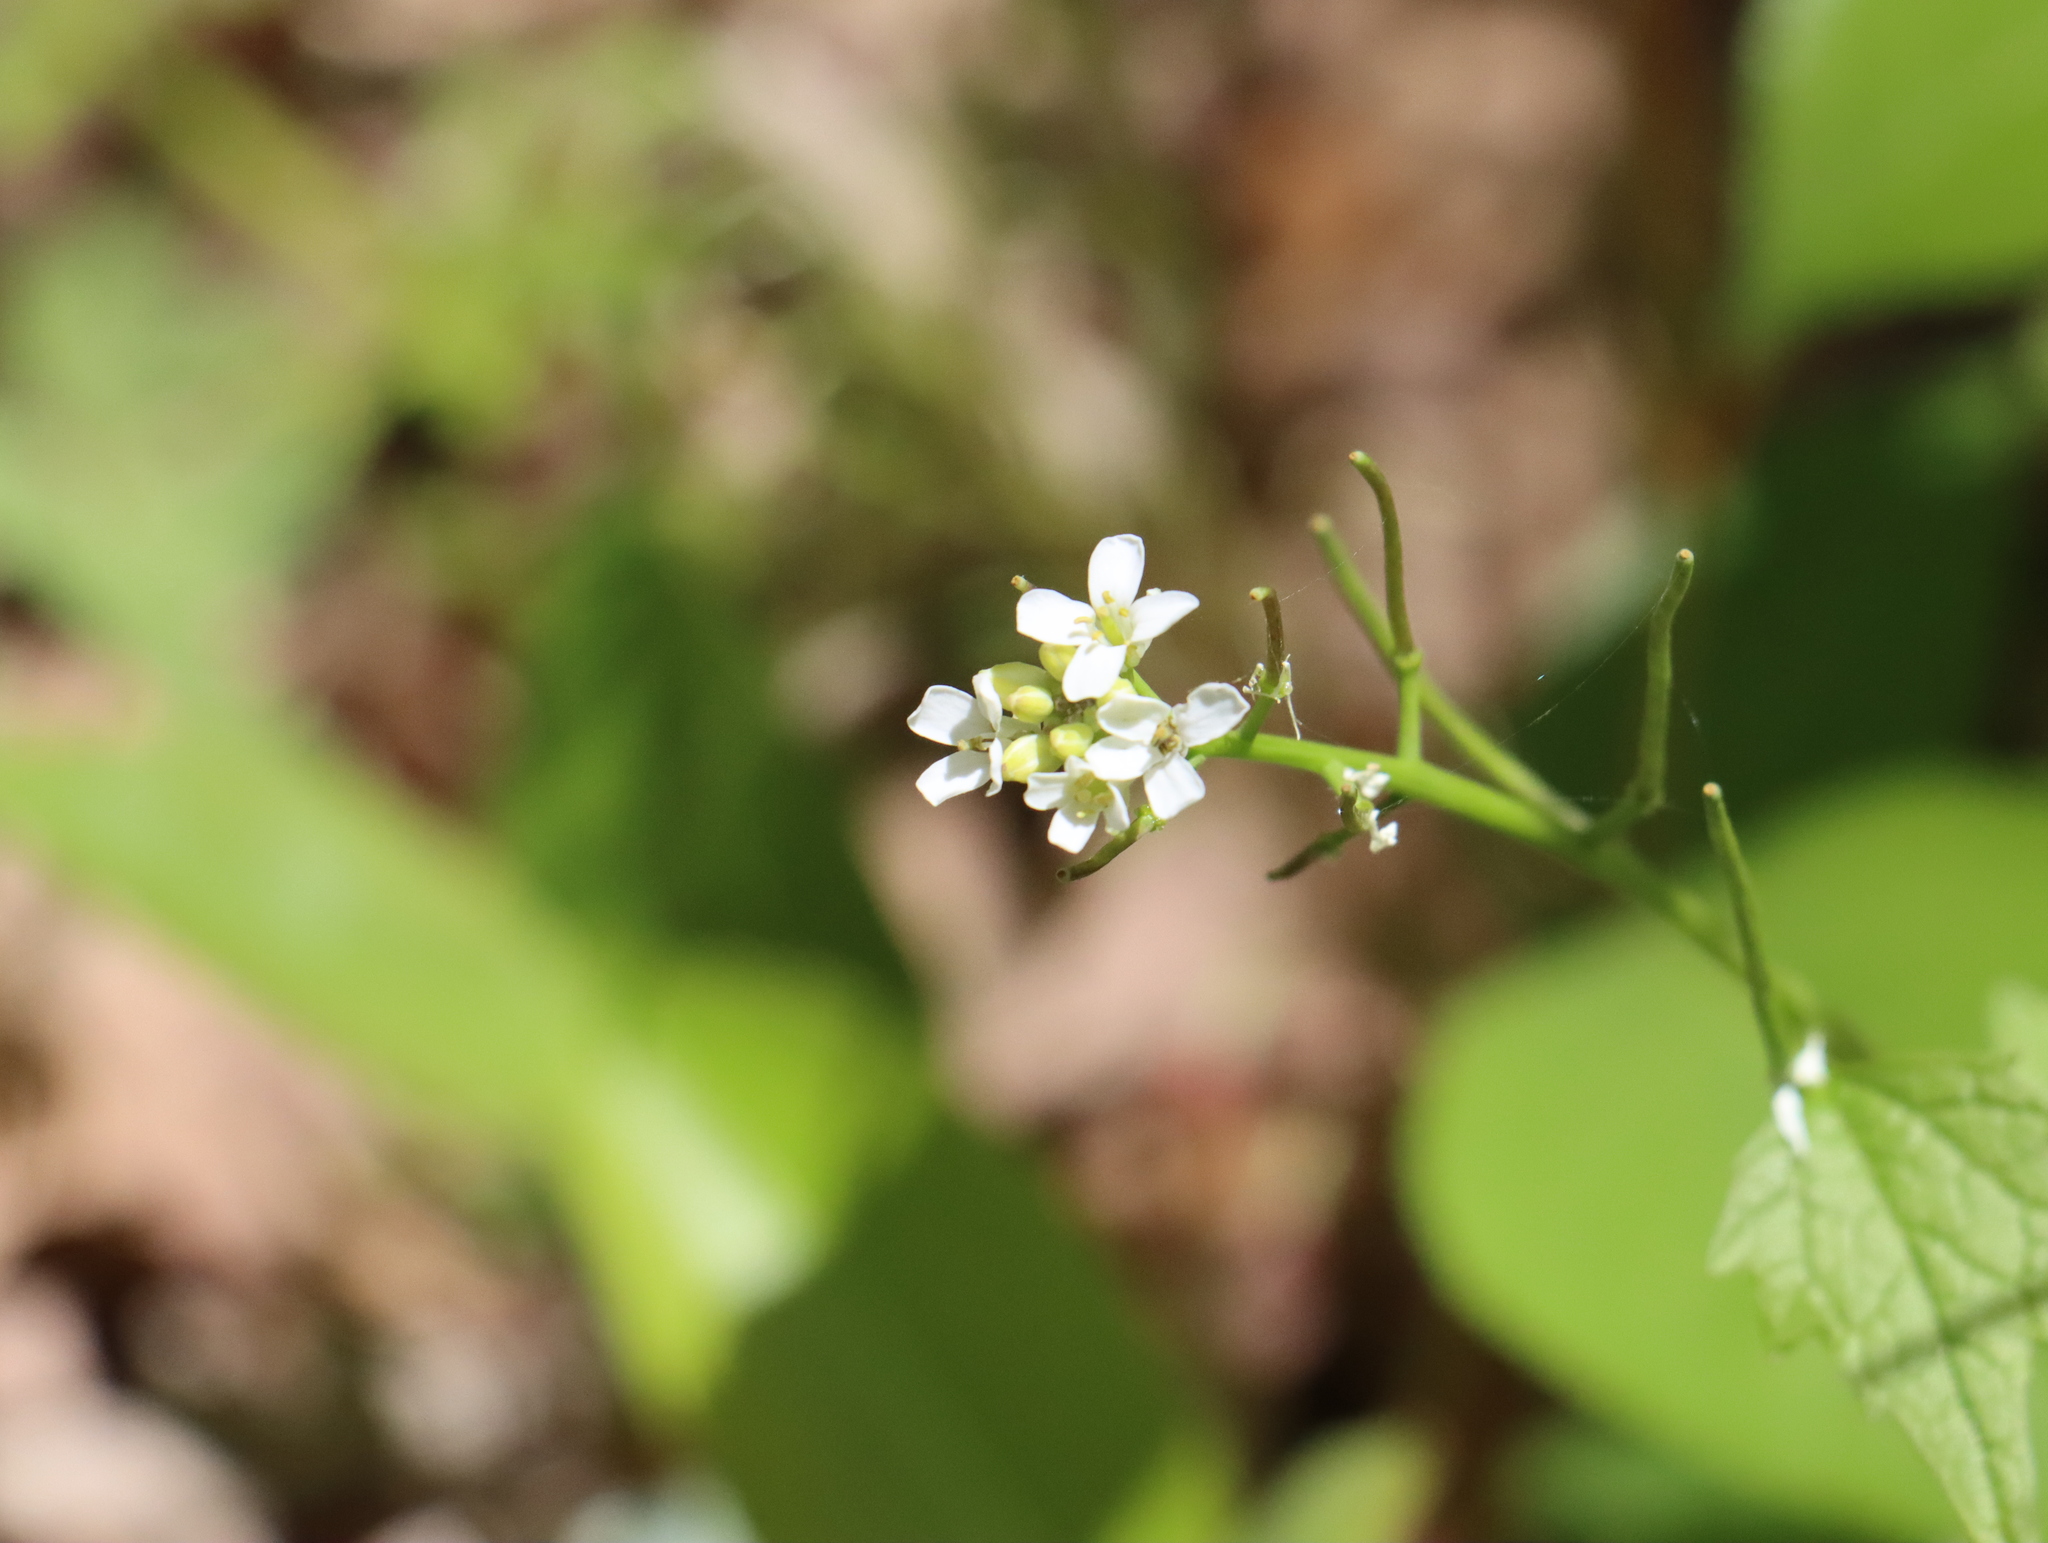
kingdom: Plantae
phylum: Tracheophyta
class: Magnoliopsida
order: Brassicales
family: Brassicaceae
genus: Alliaria
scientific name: Alliaria petiolata
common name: Garlic mustard
